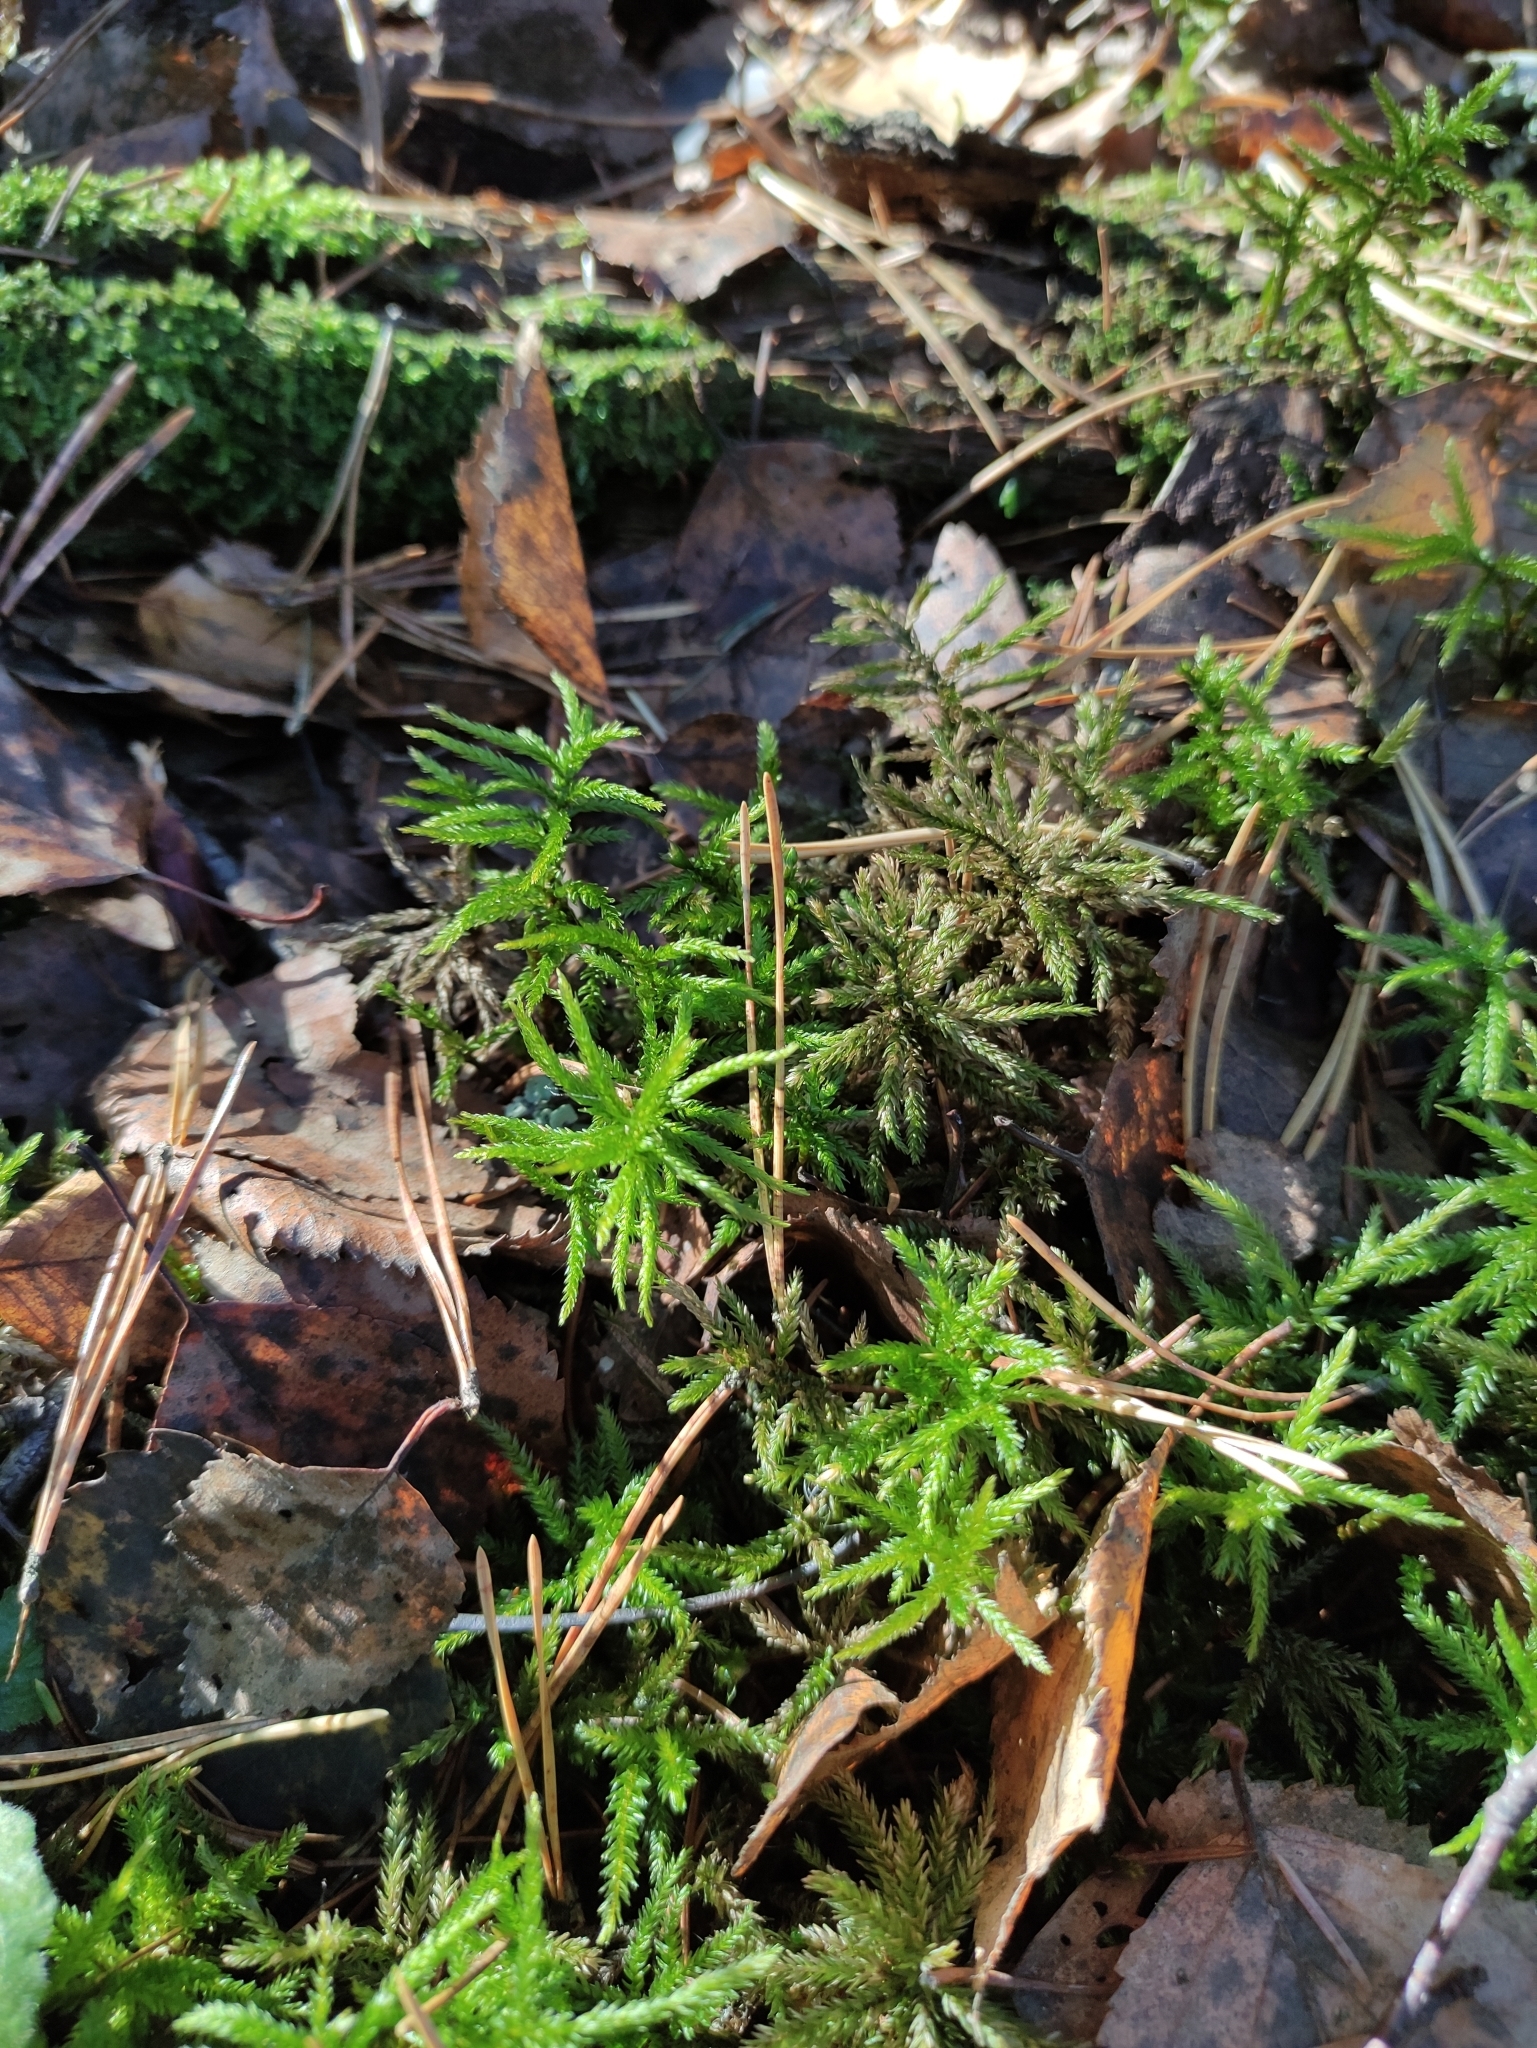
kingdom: Plantae
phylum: Bryophyta
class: Bryopsida
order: Hypnales
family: Climaciaceae
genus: Climacium
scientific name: Climacium dendroides
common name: Northern tree moss
